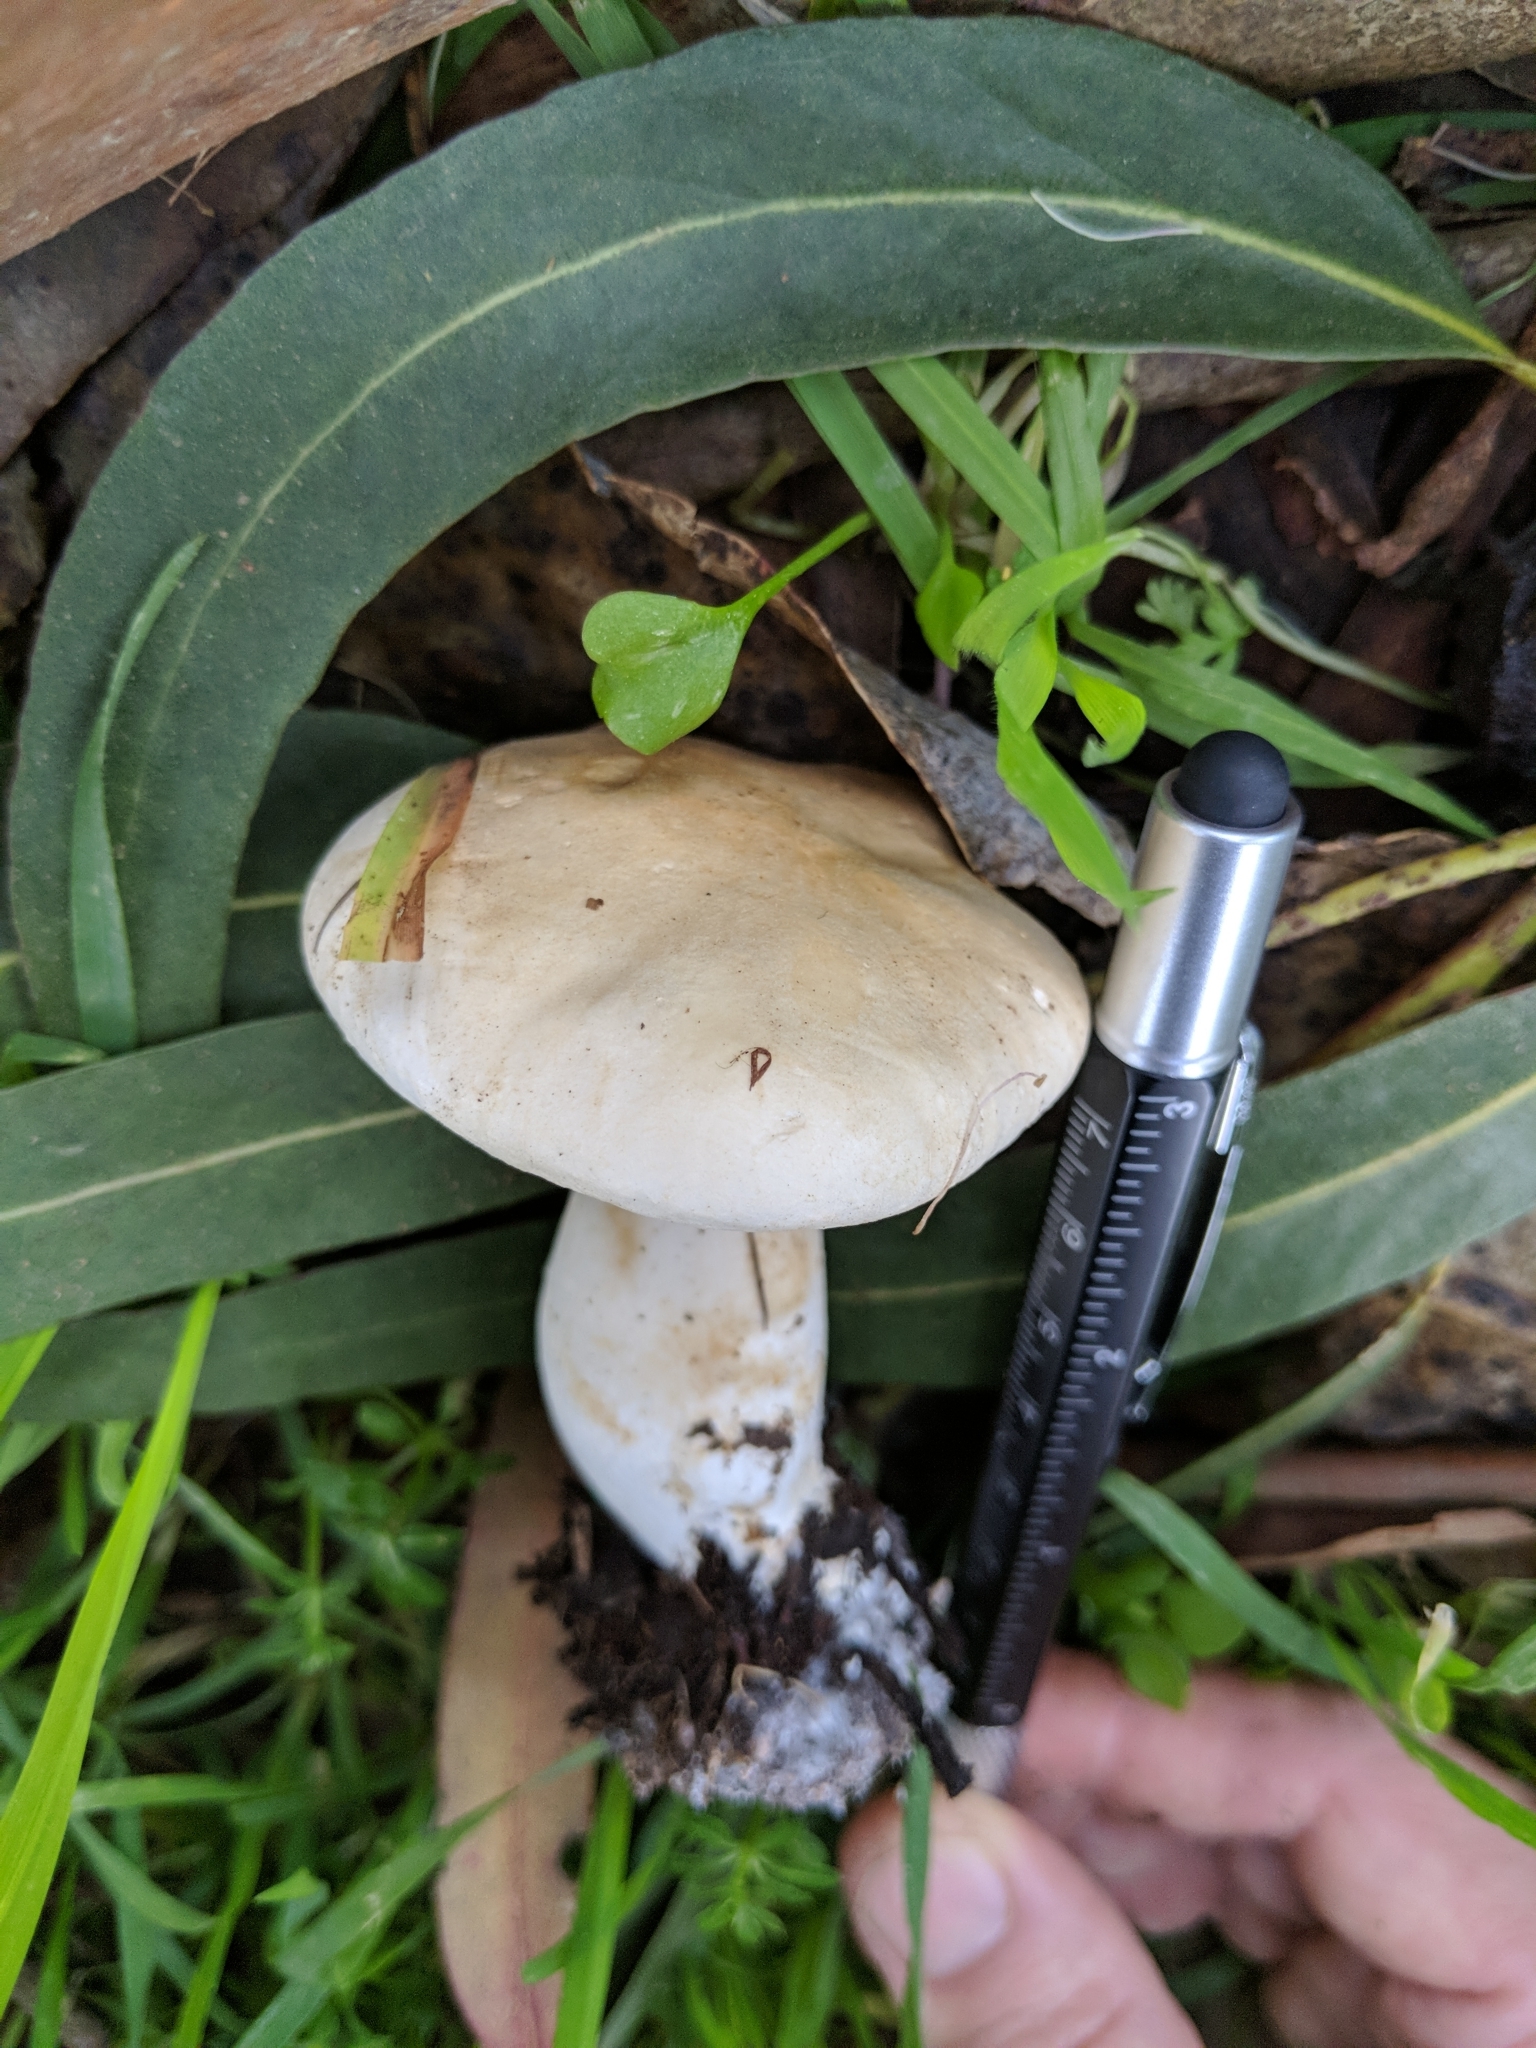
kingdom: Fungi
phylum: Basidiomycota
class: Agaricomycetes
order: Agaricales
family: Tricholomataceae
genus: Leucopaxillus
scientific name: Leucopaxillus albissimus
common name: Large white leucopax
